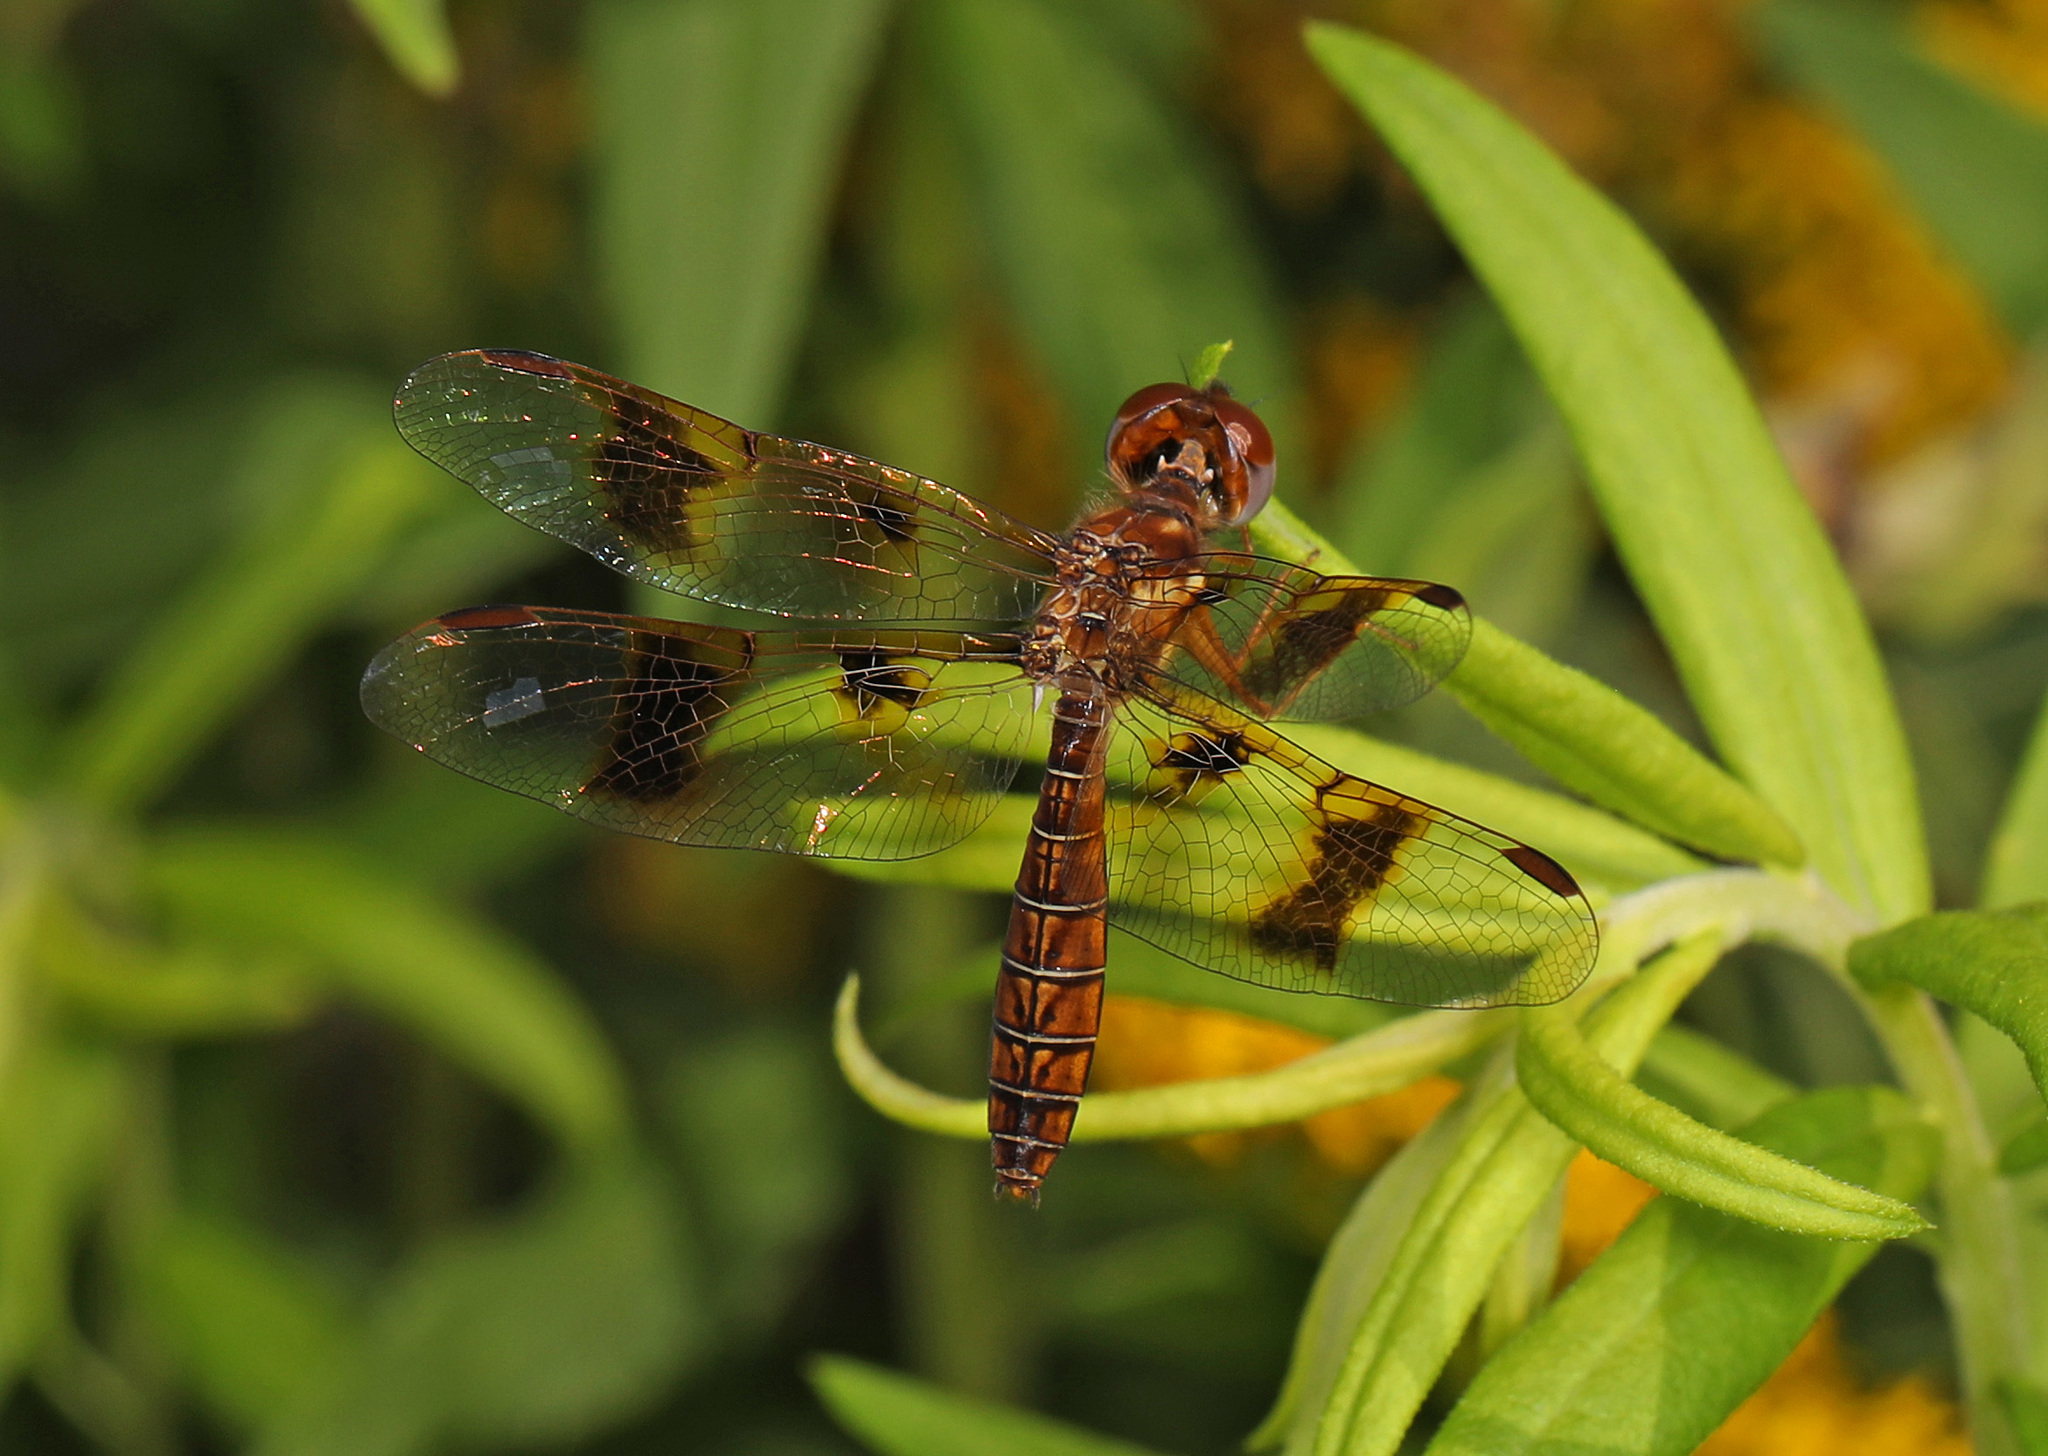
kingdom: Animalia
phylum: Arthropoda
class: Insecta
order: Odonata
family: Libellulidae
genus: Perithemis
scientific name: Perithemis tenera
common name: Eastern amberwing
